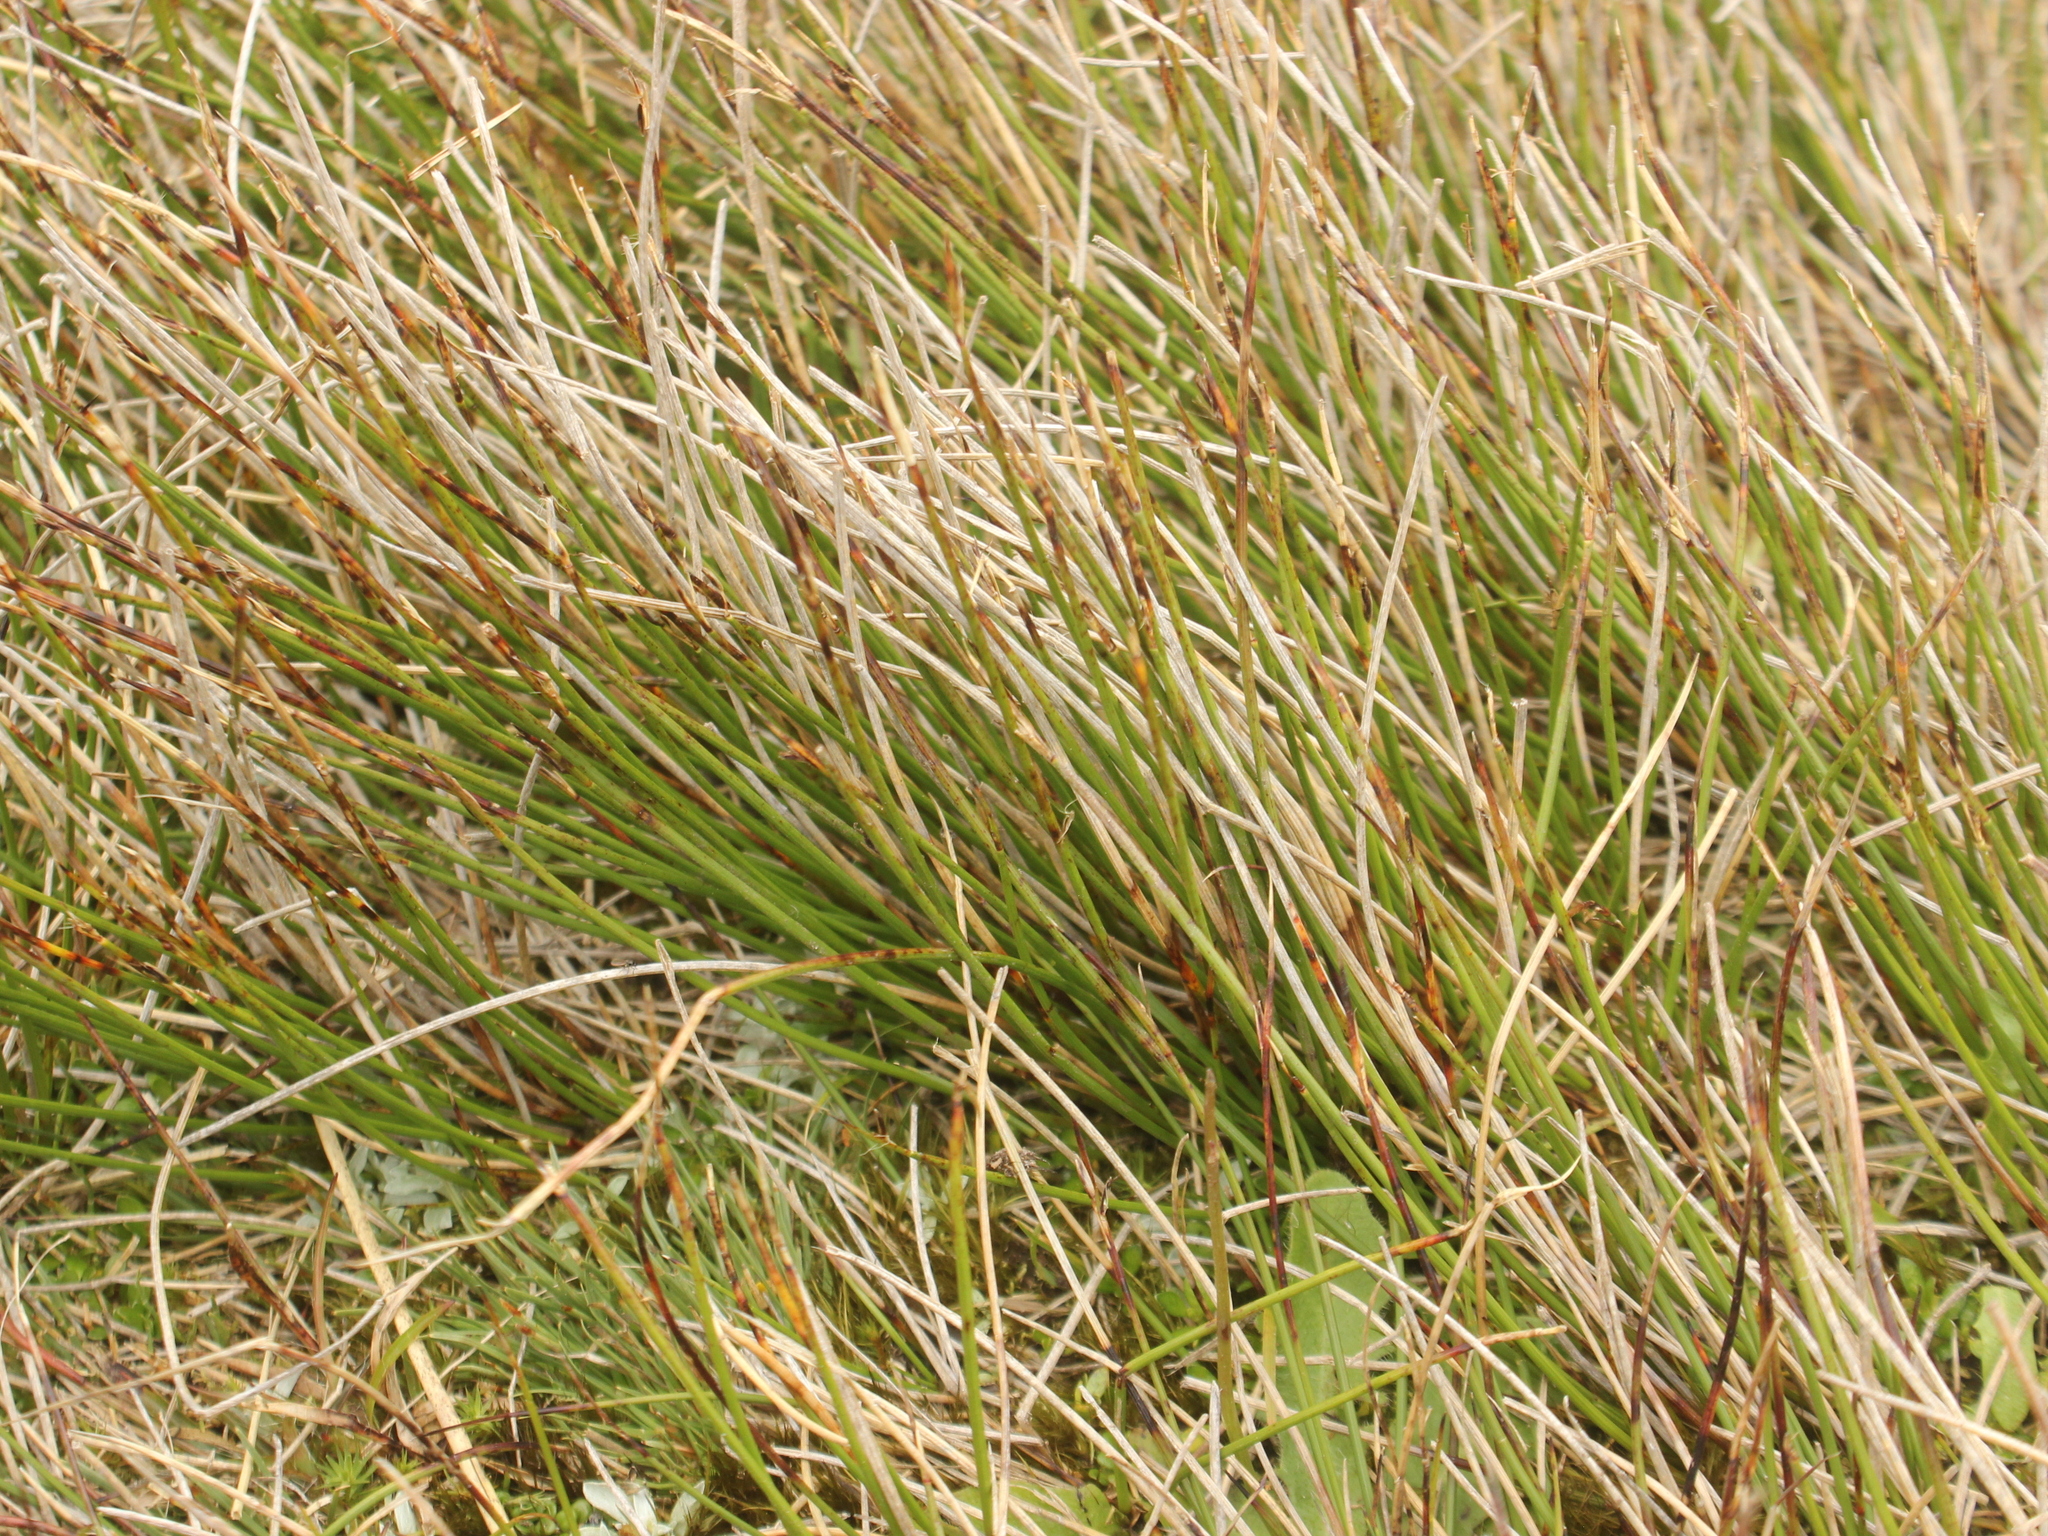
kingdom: Plantae
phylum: Tracheophyta
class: Liliopsida
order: Poales
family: Cyperaceae
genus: Schoenus
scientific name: Schoenus pauciflorus
